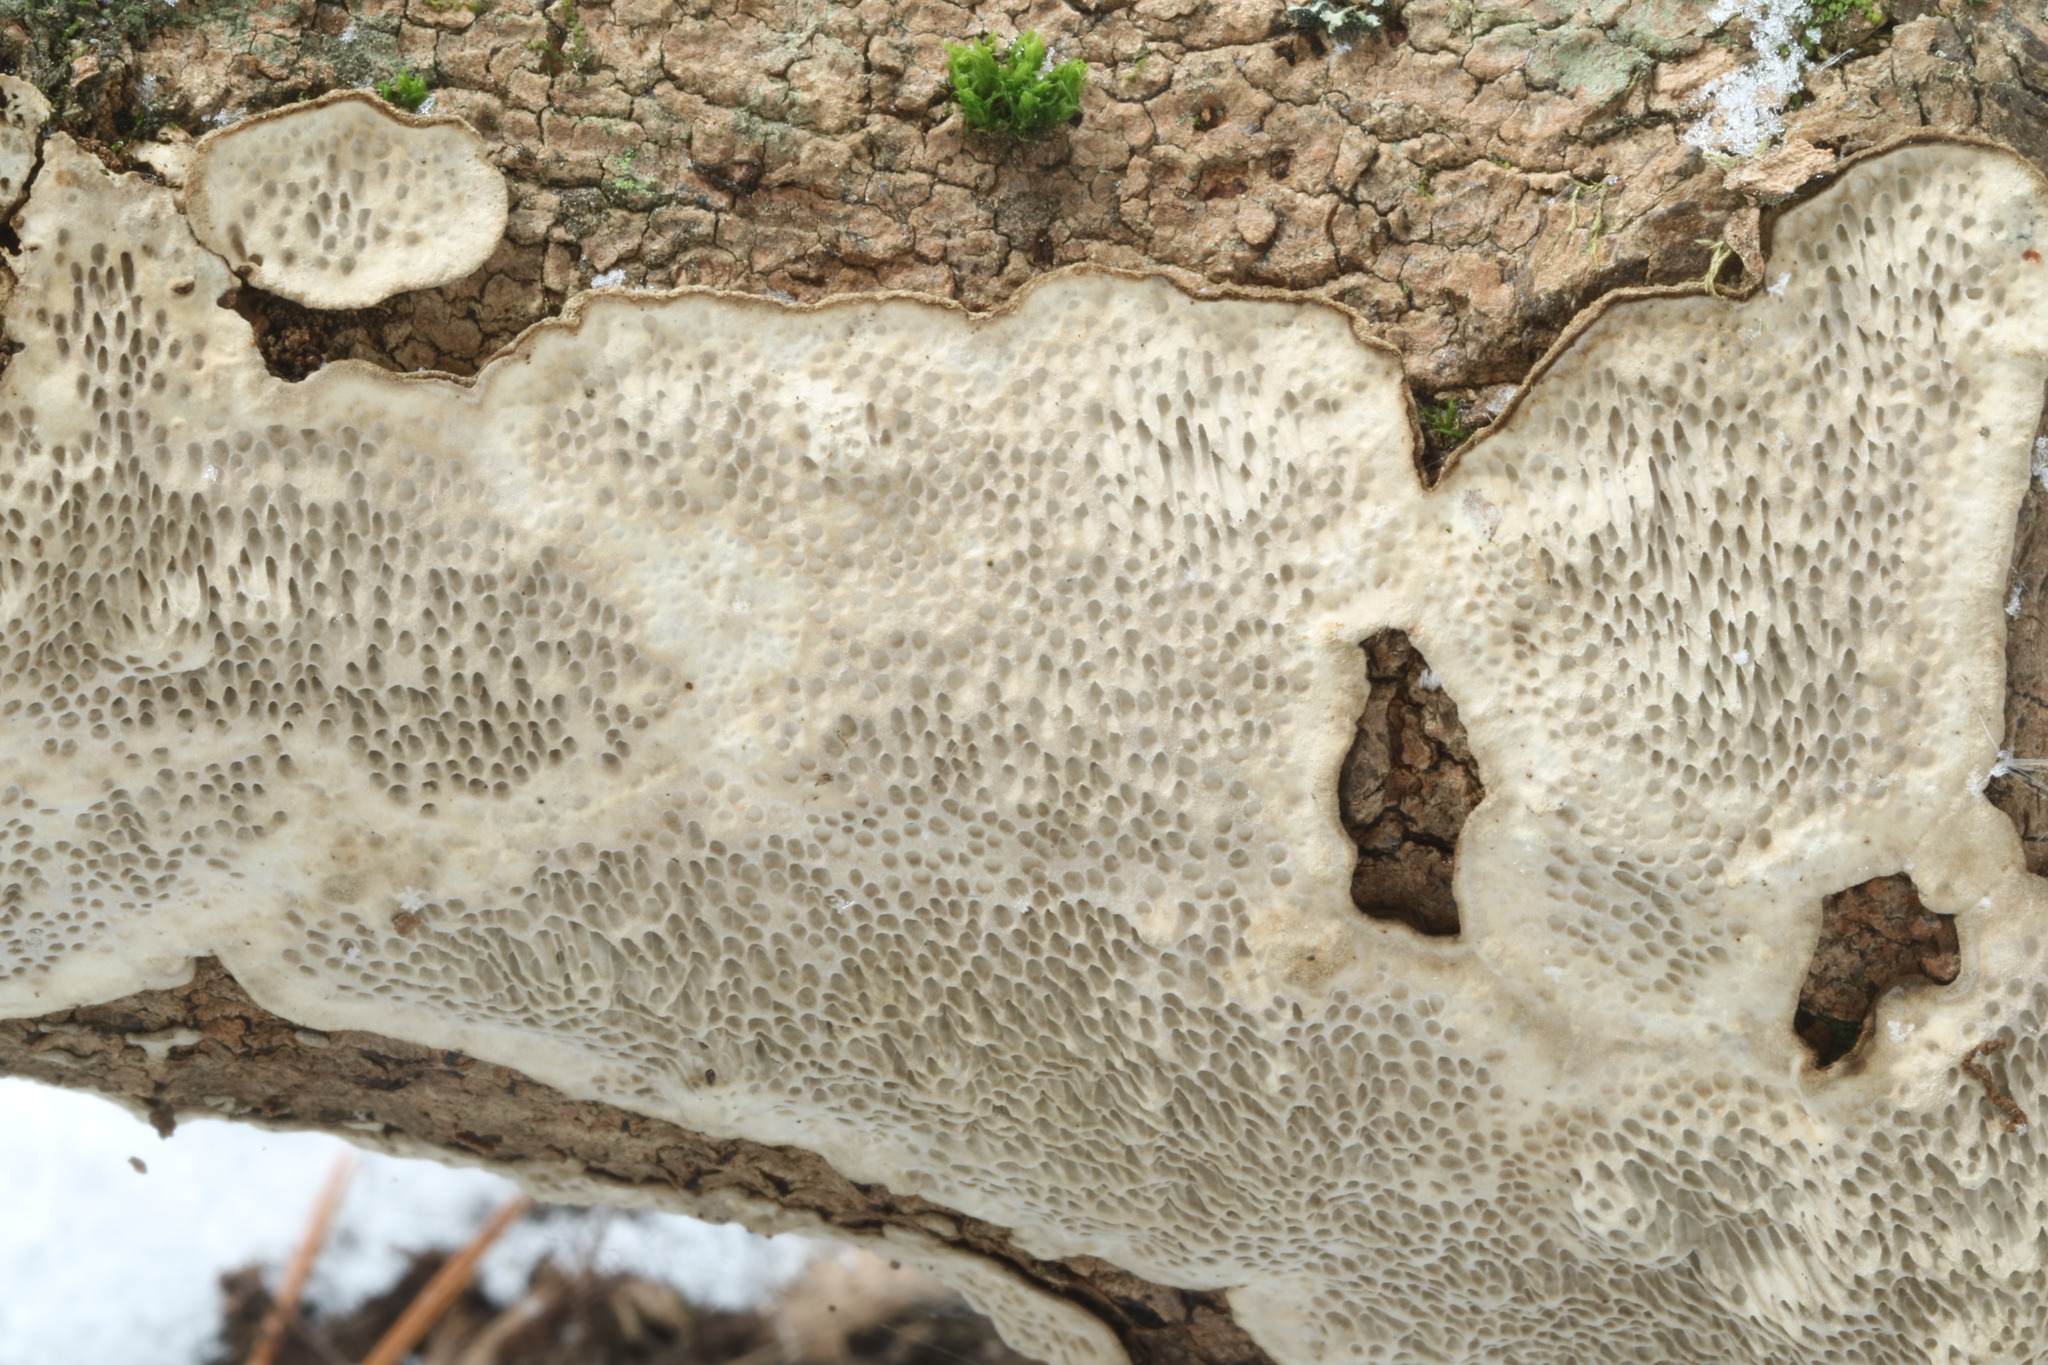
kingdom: Fungi
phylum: Basidiomycota
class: Agaricomycetes
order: Polyporales
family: Polyporaceae
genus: Podofomes
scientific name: Podofomes mollis
